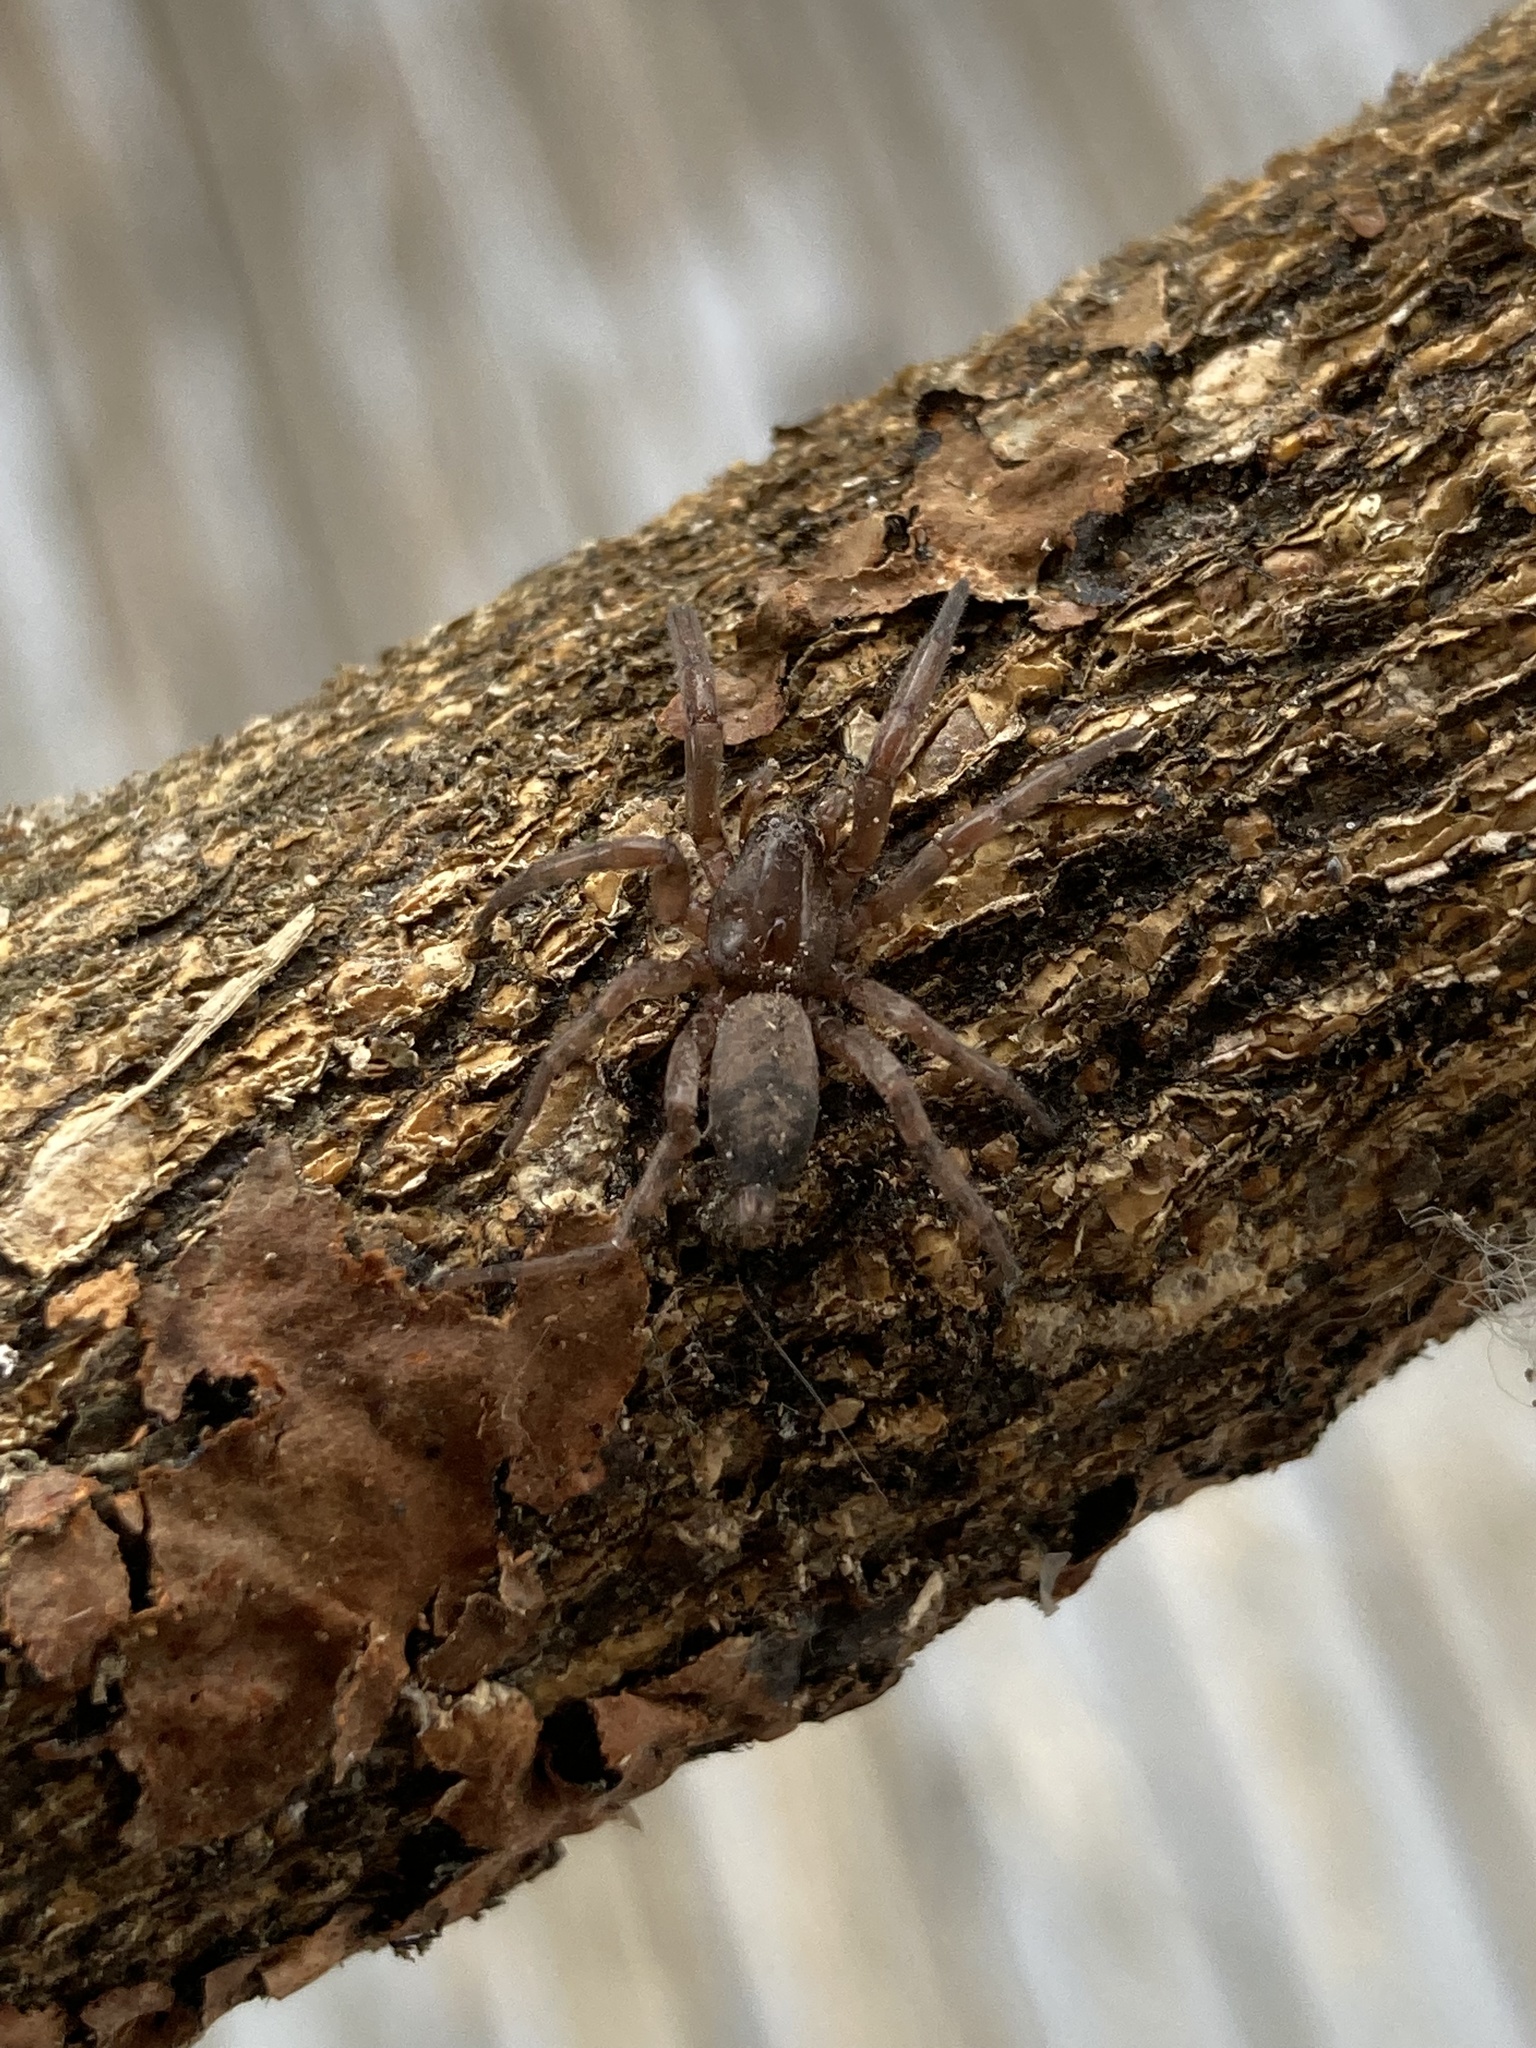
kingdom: Animalia
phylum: Arthropoda
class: Arachnida
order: Araneae
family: Gnaphosidae
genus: Intruda
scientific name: Intruda signata
